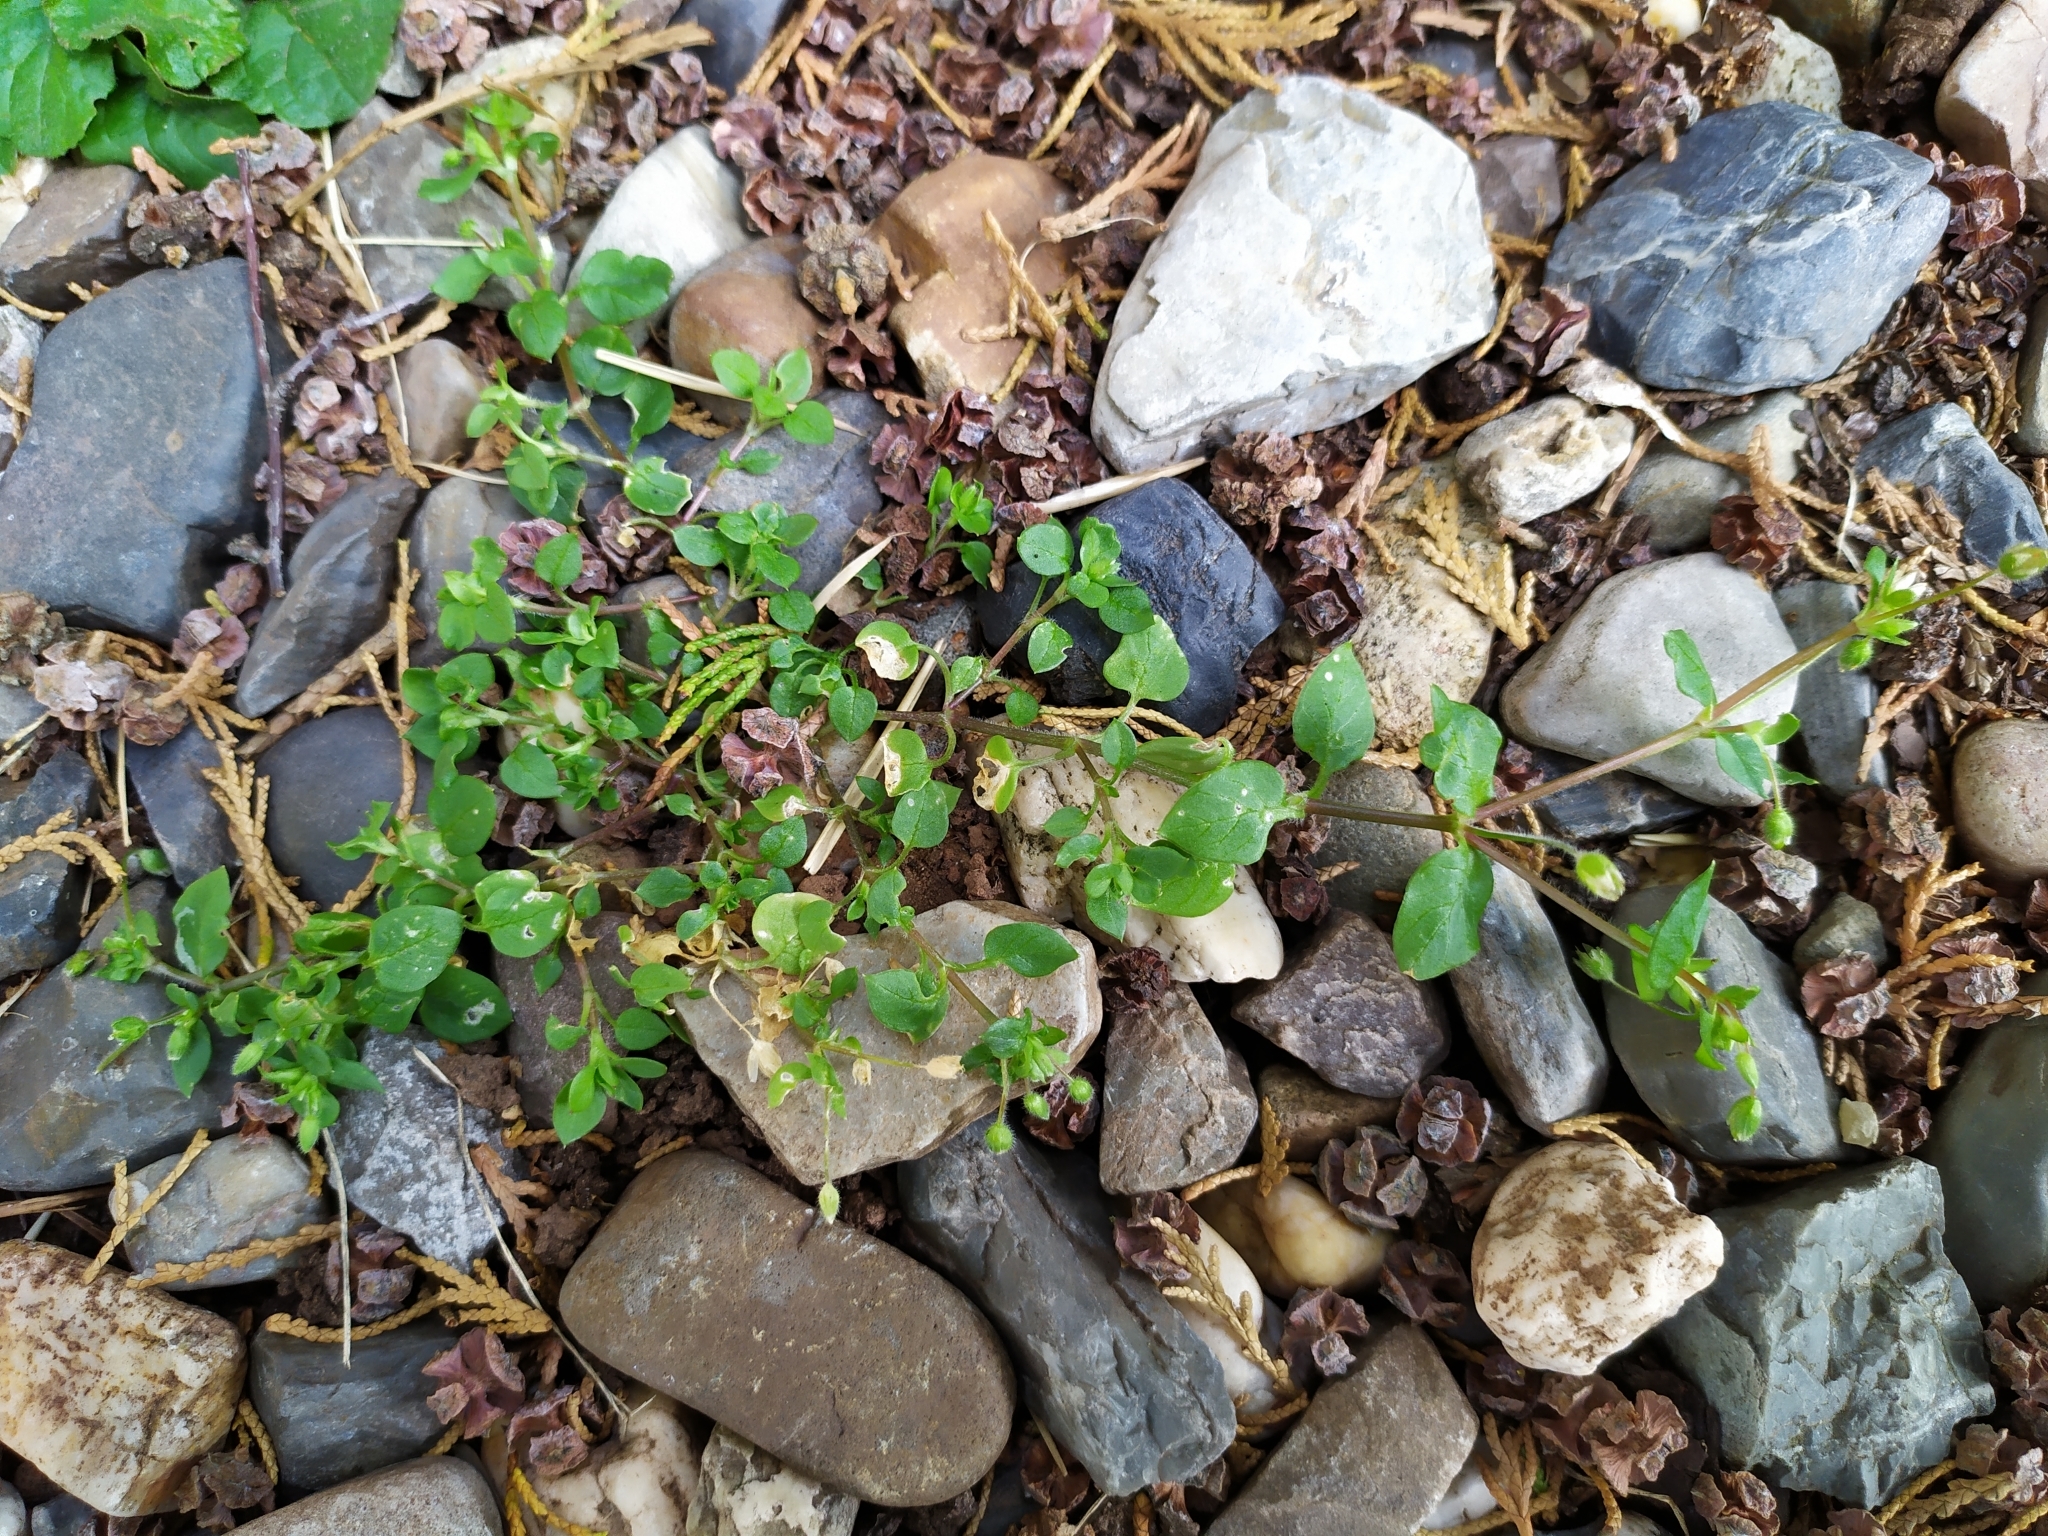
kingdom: Plantae
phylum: Tracheophyta
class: Magnoliopsida
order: Caryophyllales
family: Caryophyllaceae
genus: Stellaria
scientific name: Stellaria media
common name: Common chickweed
